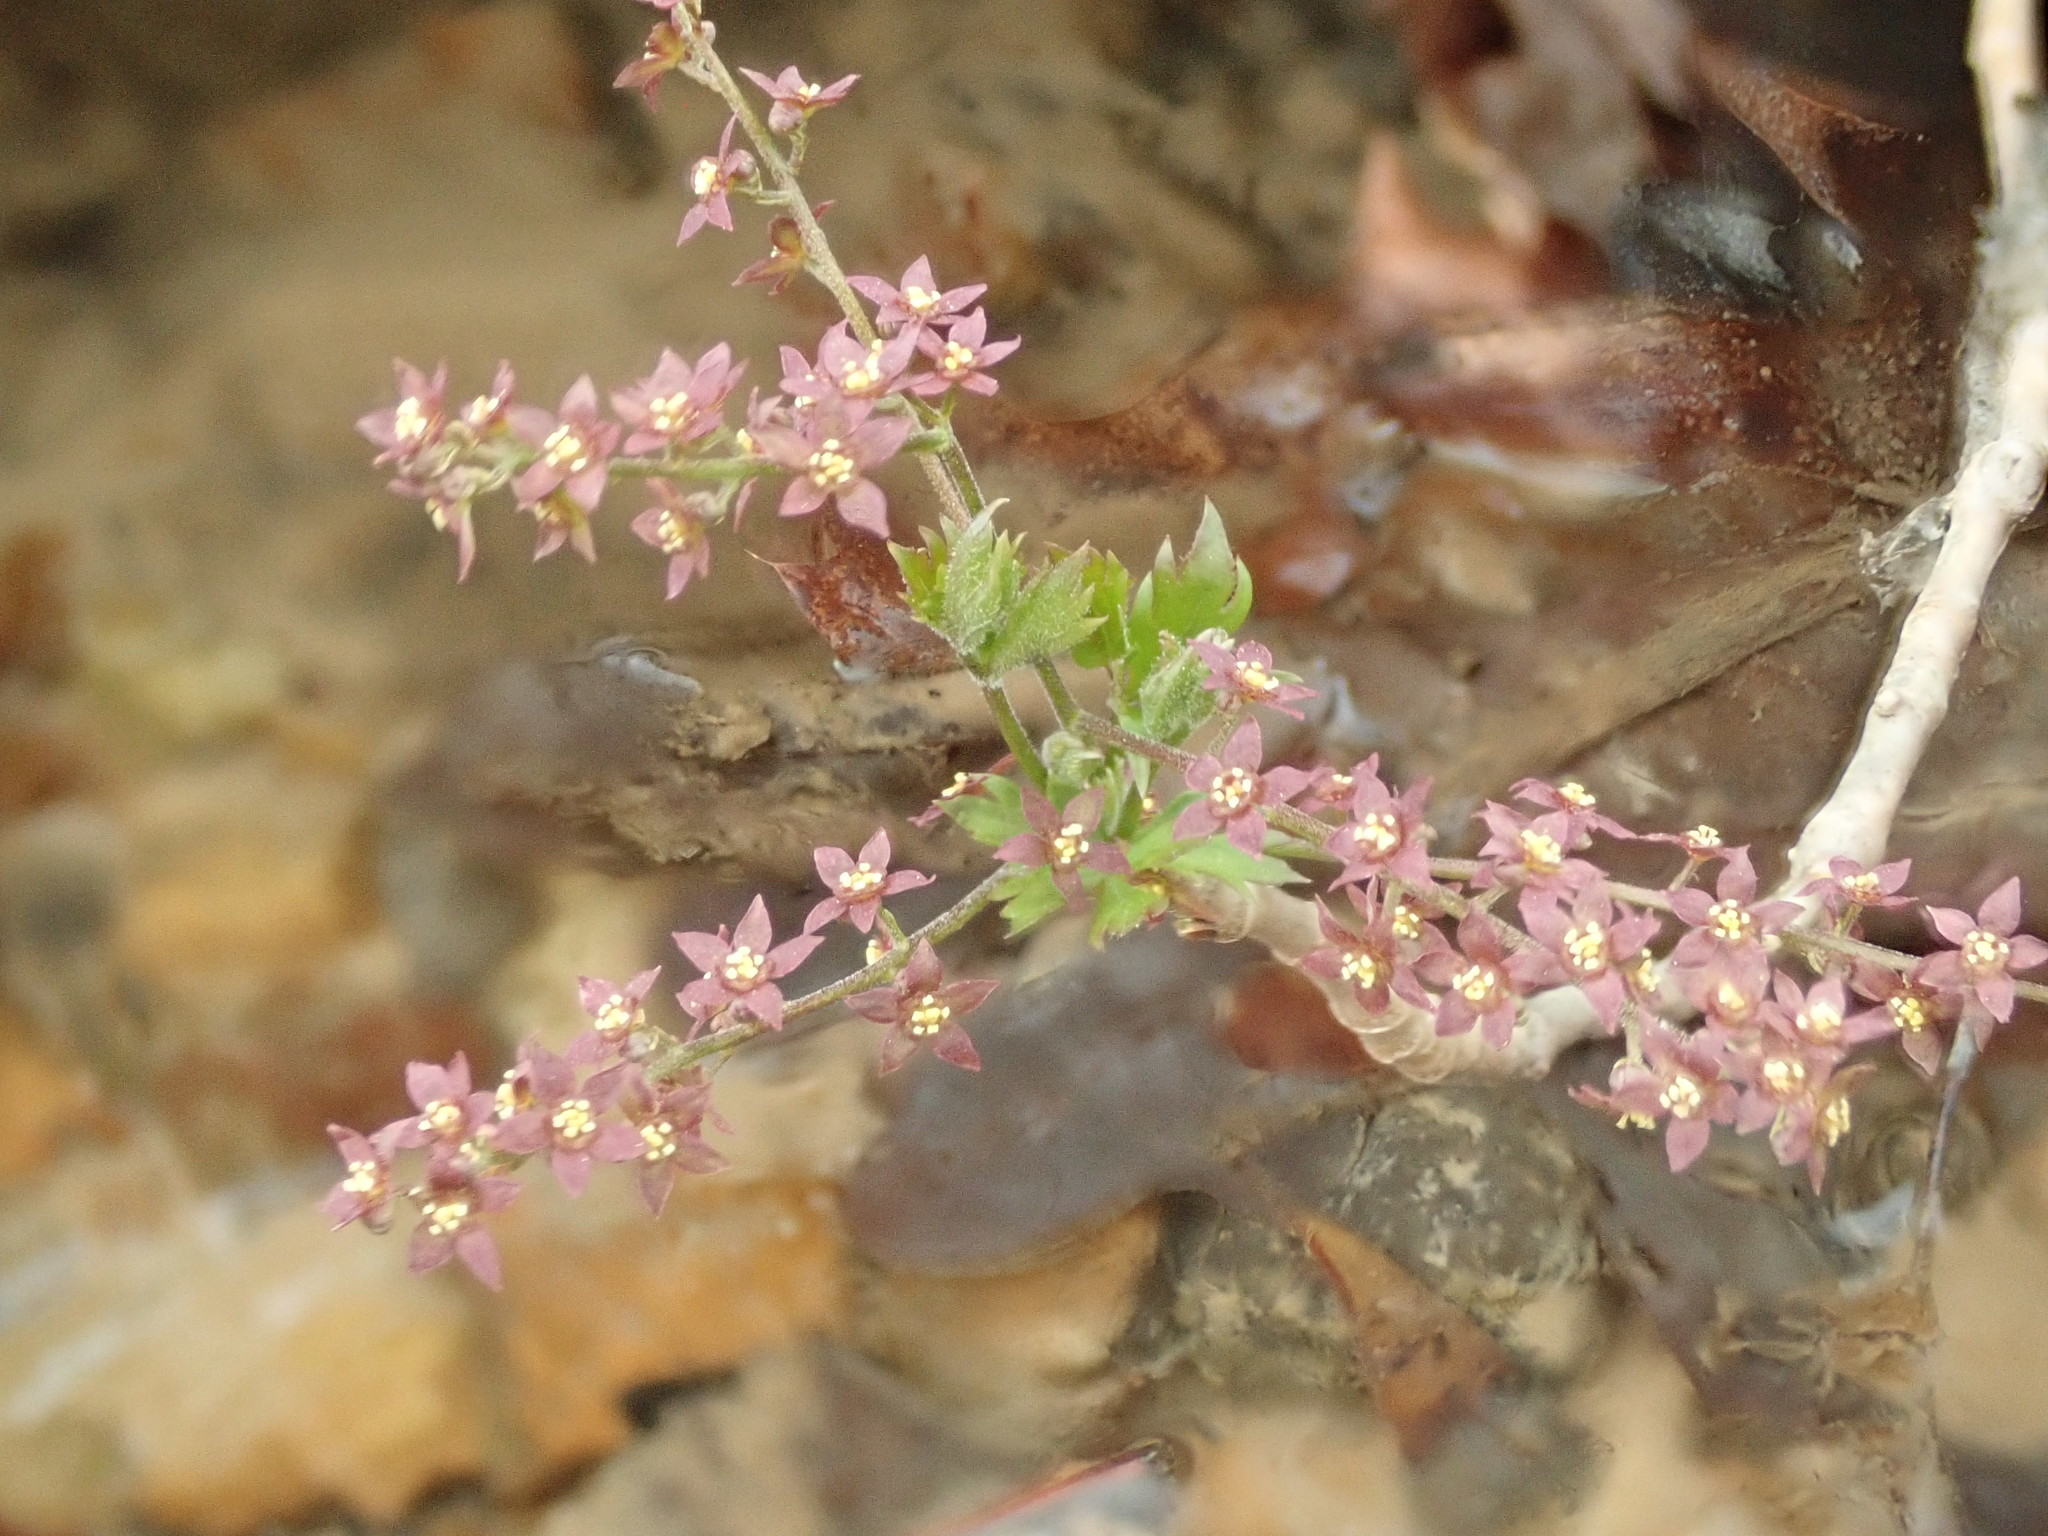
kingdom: Plantae
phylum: Tracheophyta
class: Magnoliopsida
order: Ranunculales
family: Ranunculaceae
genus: Xanthorhiza
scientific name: Xanthorhiza simplicissima
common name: Yellowroot
